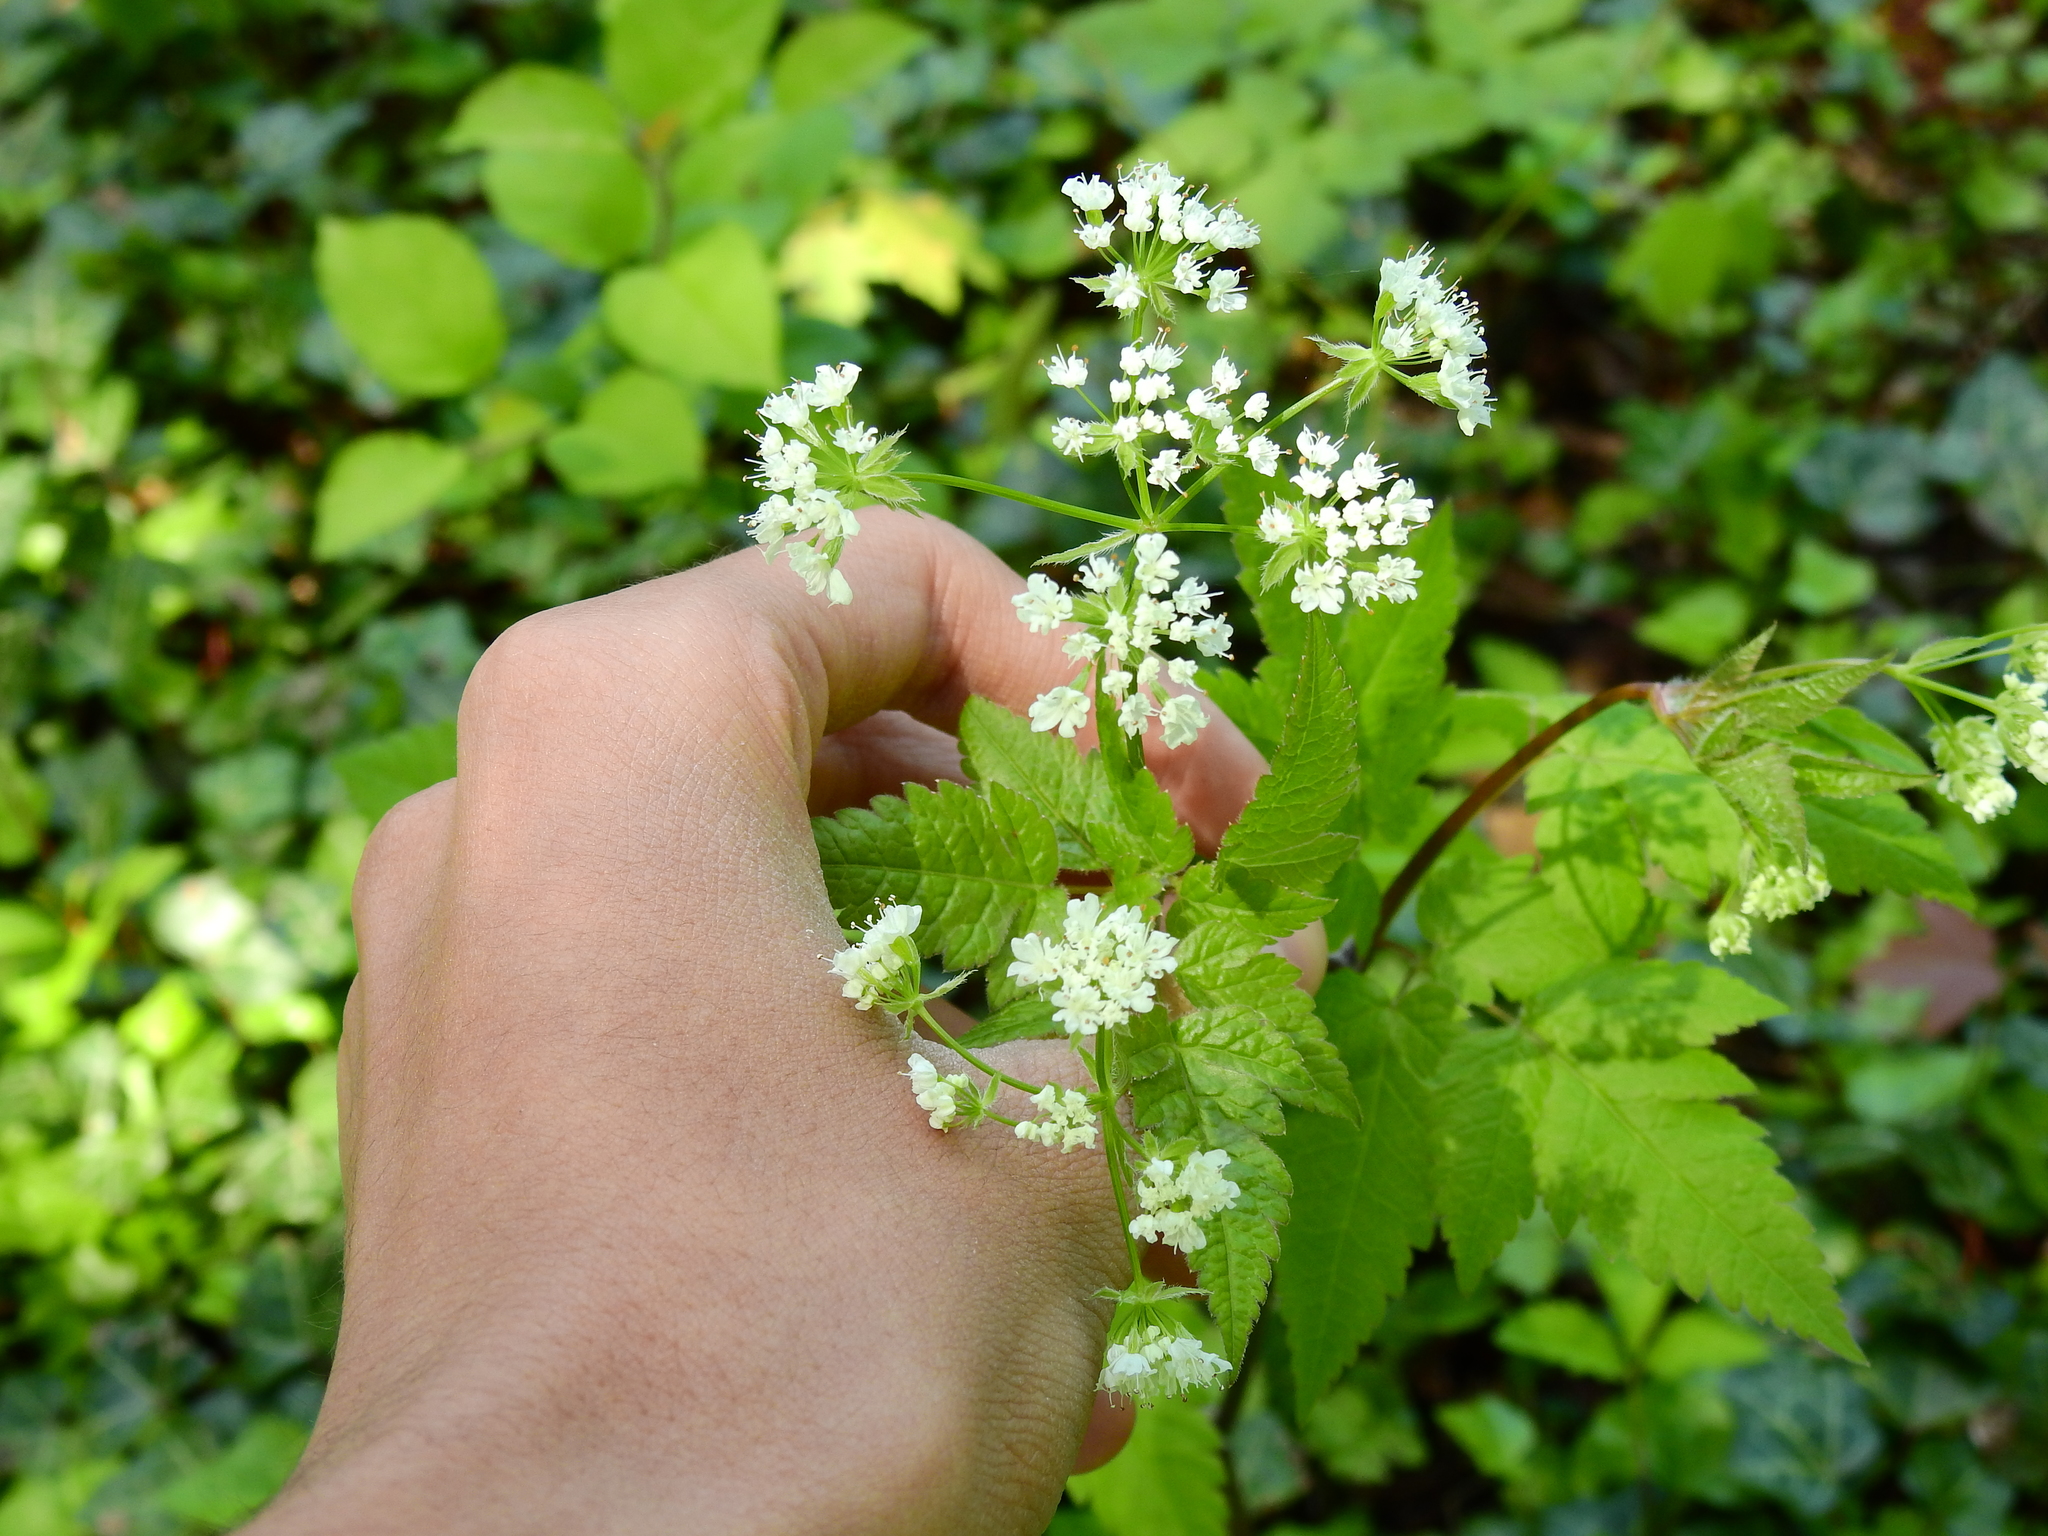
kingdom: Plantae
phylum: Tracheophyta
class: Magnoliopsida
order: Apiales
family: Apiaceae
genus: Osmorhiza
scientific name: Osmorhiza longistylis
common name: Smooth sweet cicely
